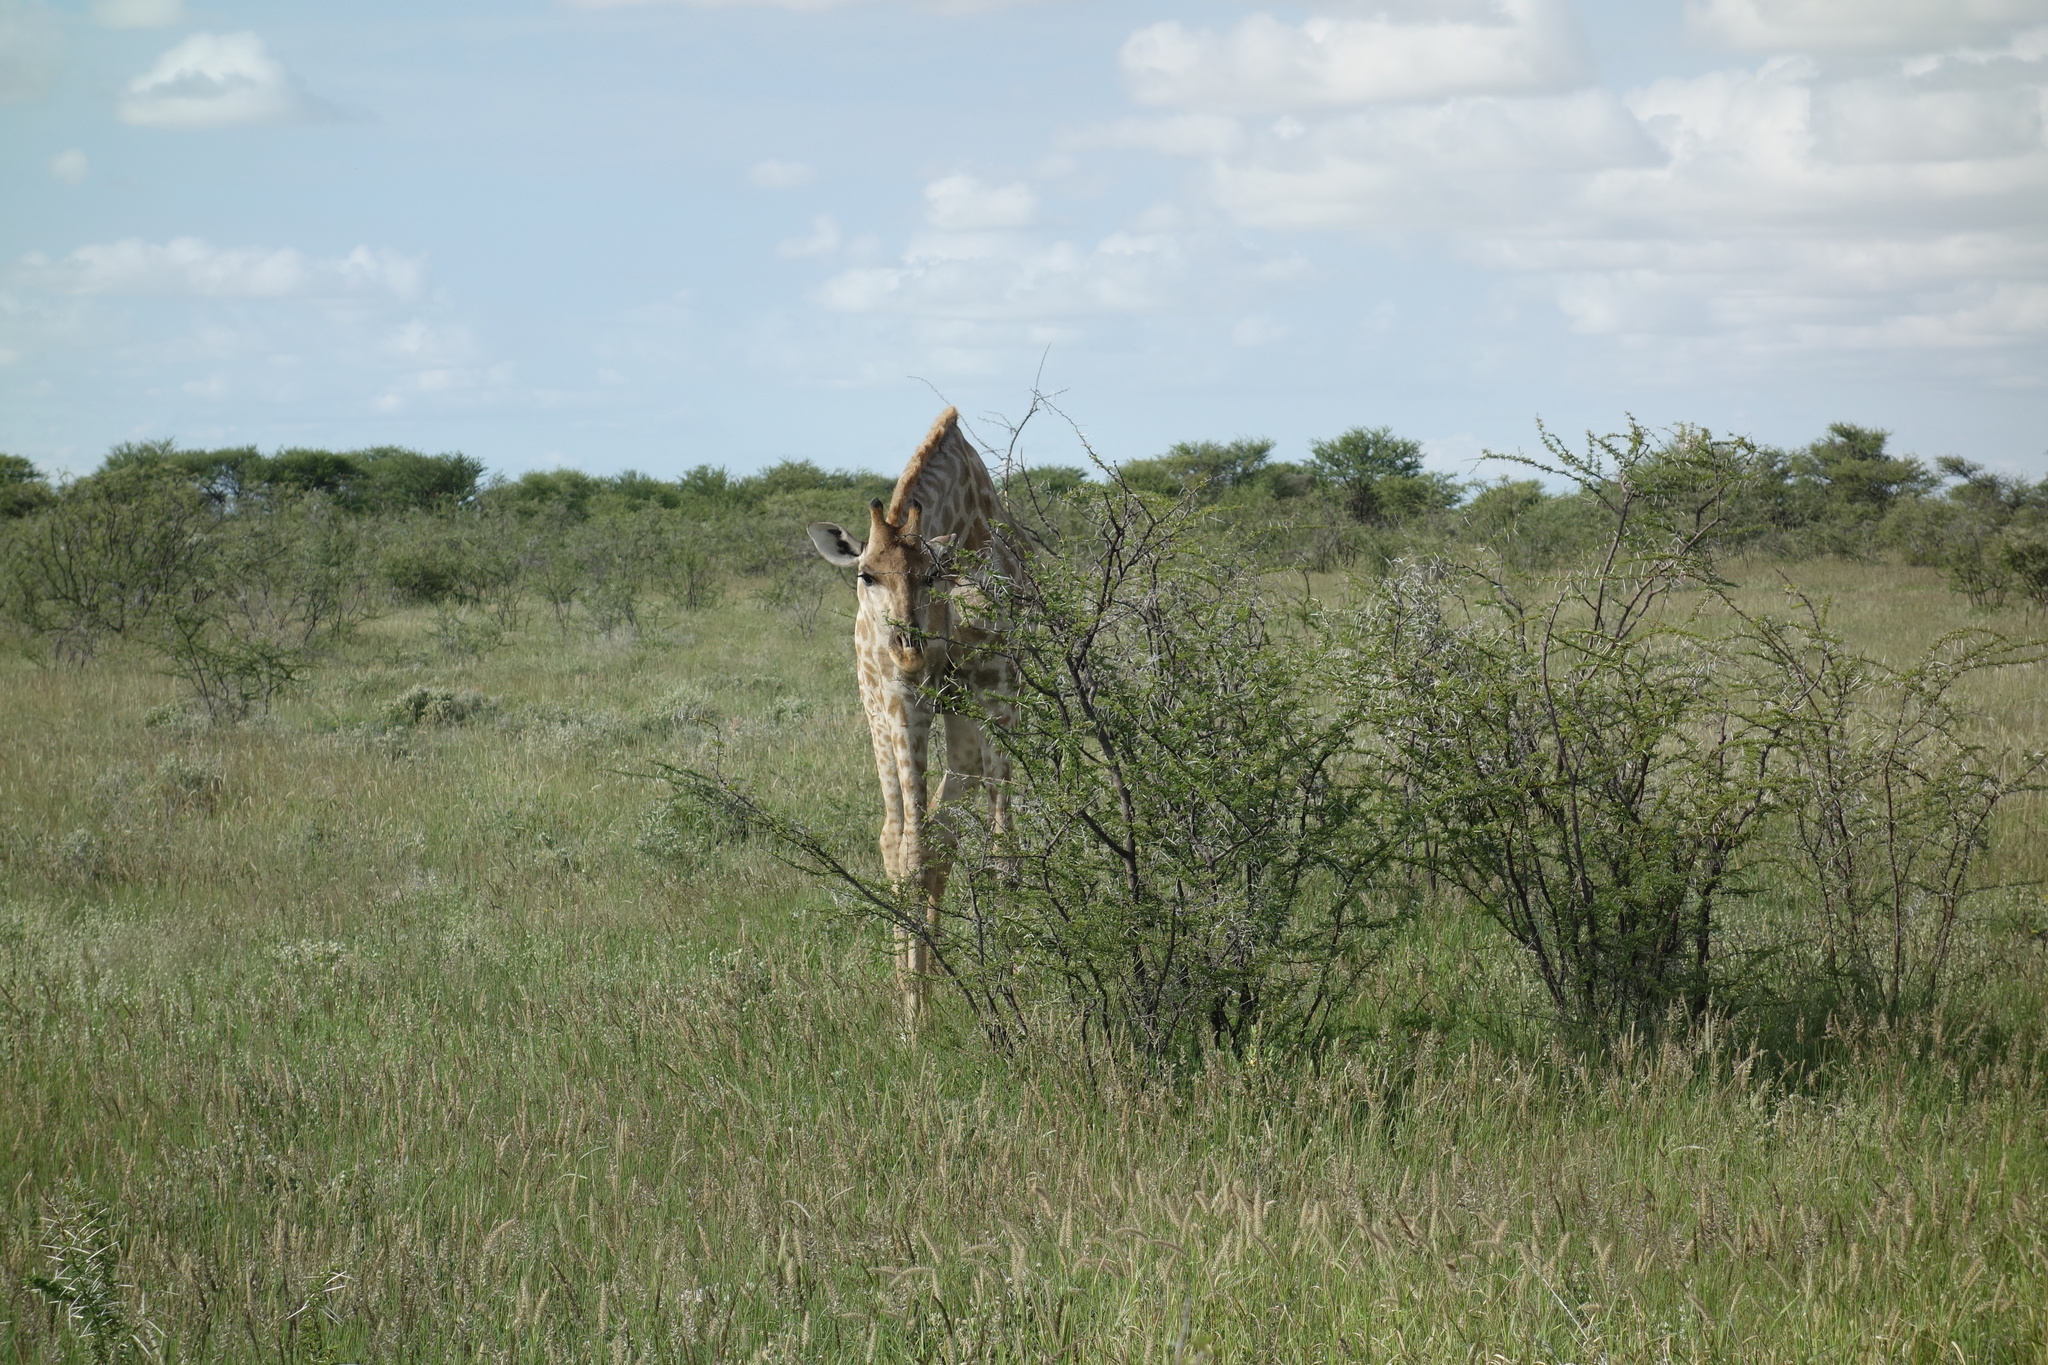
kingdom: Animalia
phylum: Chordata
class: Mammalia
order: Artiodactyla
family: Giraffidae
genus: Giraffa
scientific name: Giraffa giraffa
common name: Southern giraffe
